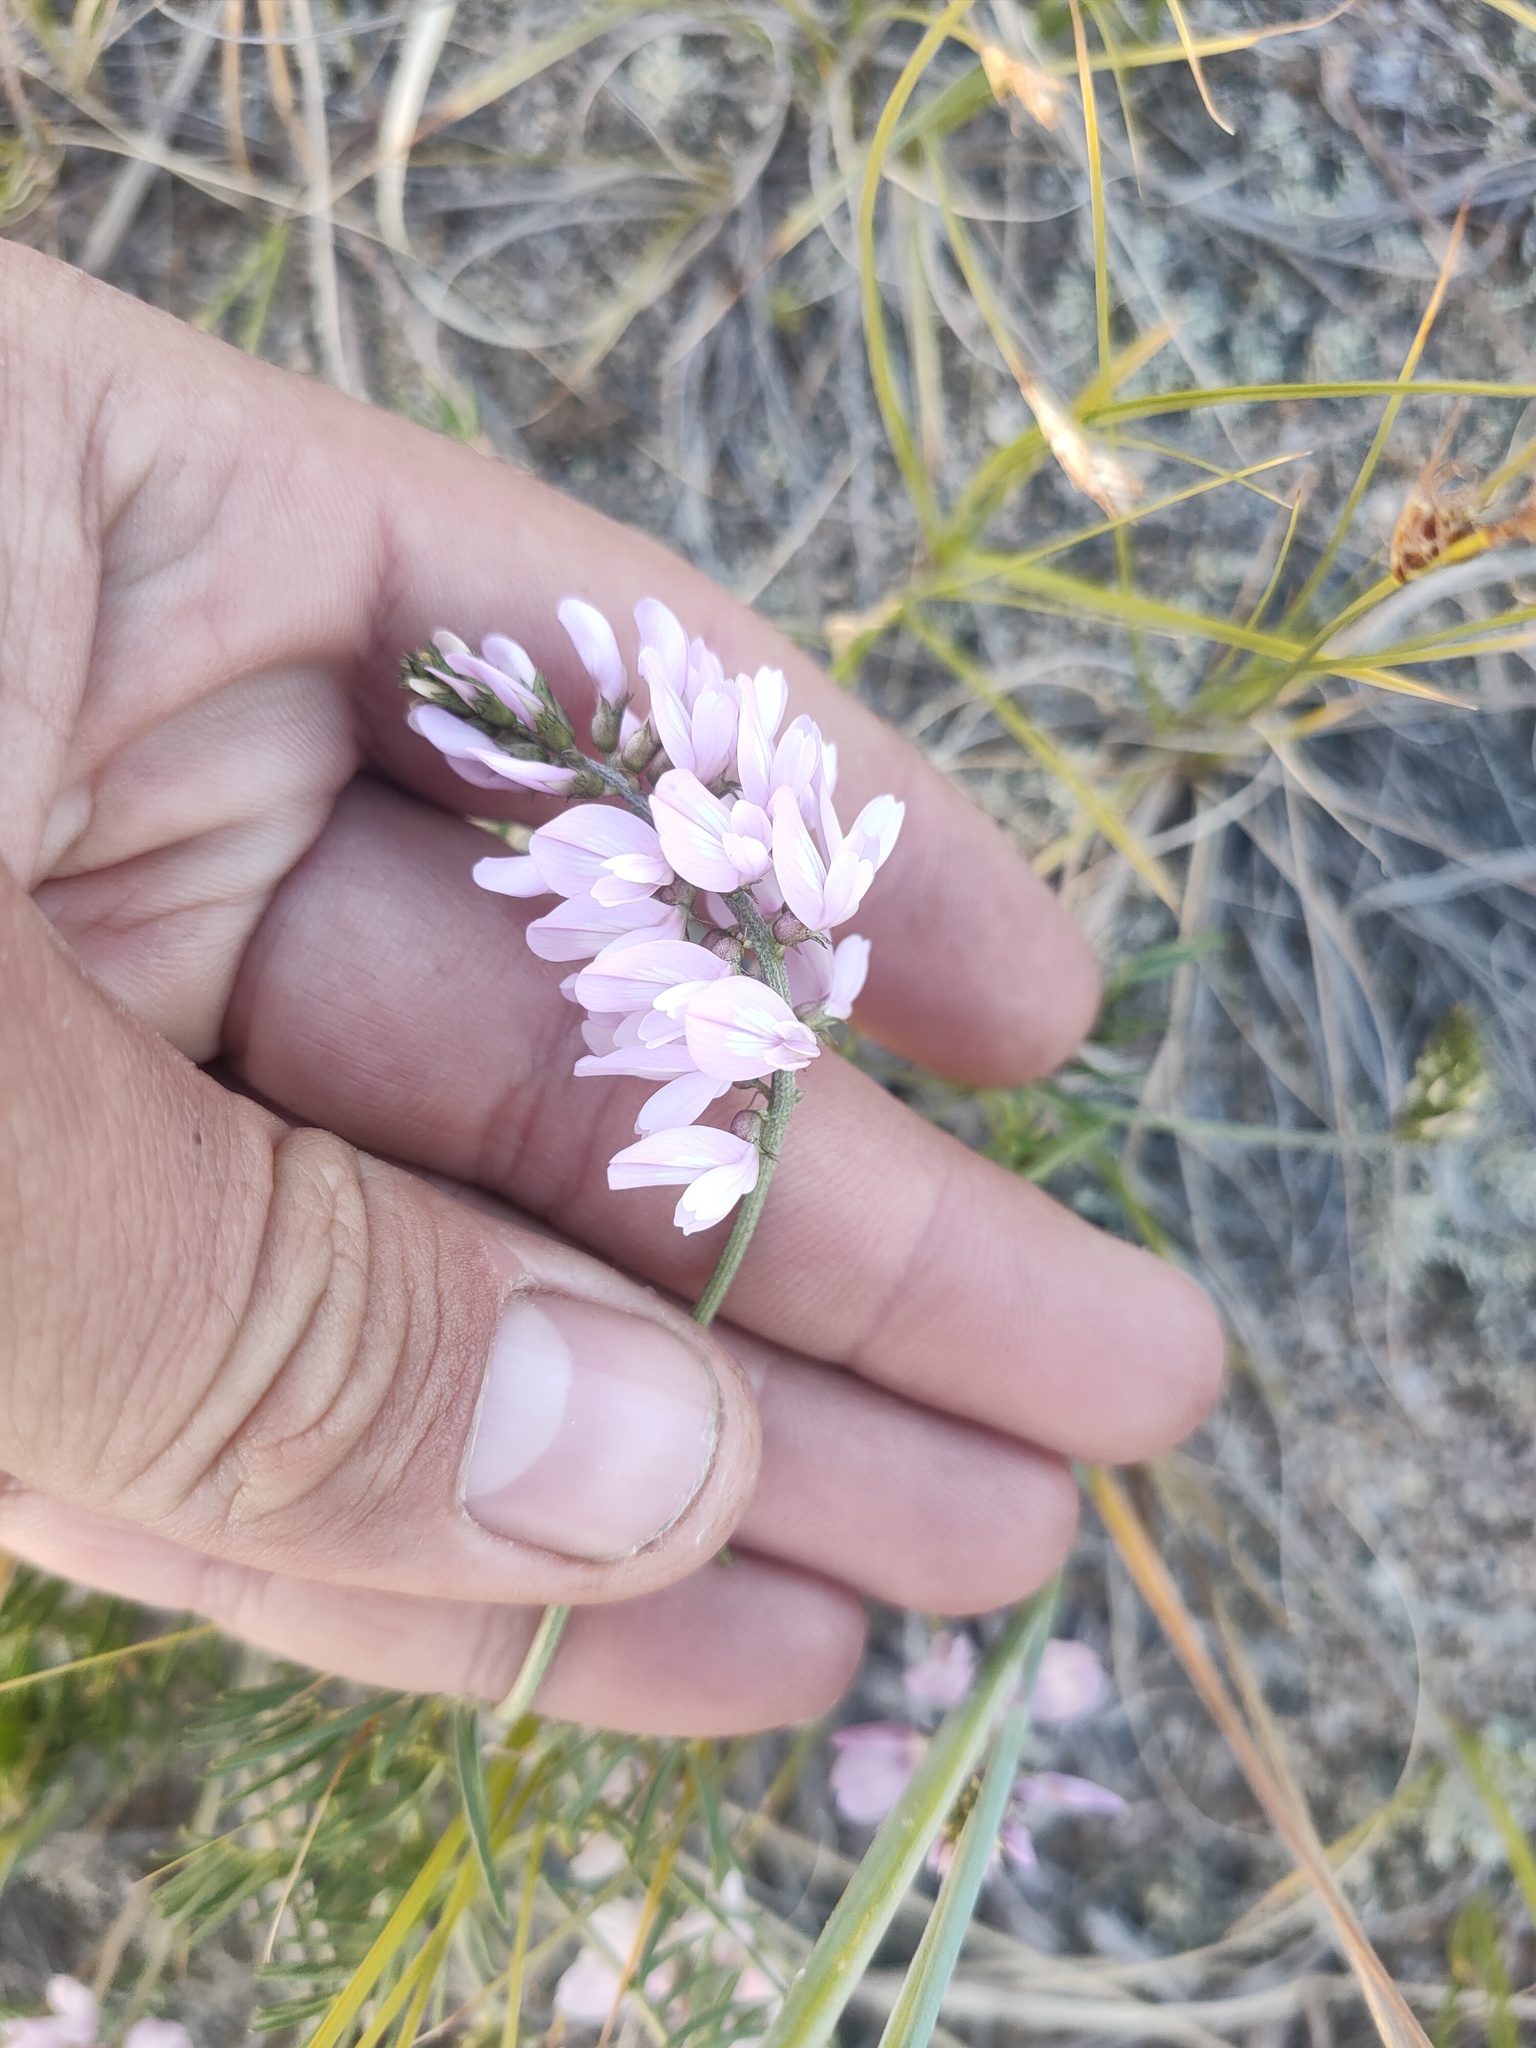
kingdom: Plantae
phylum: Tracheophyta
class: Magnoliopsida
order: Fabales
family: Fabaceae
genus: Astragalus
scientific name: Astragalus versicolor
